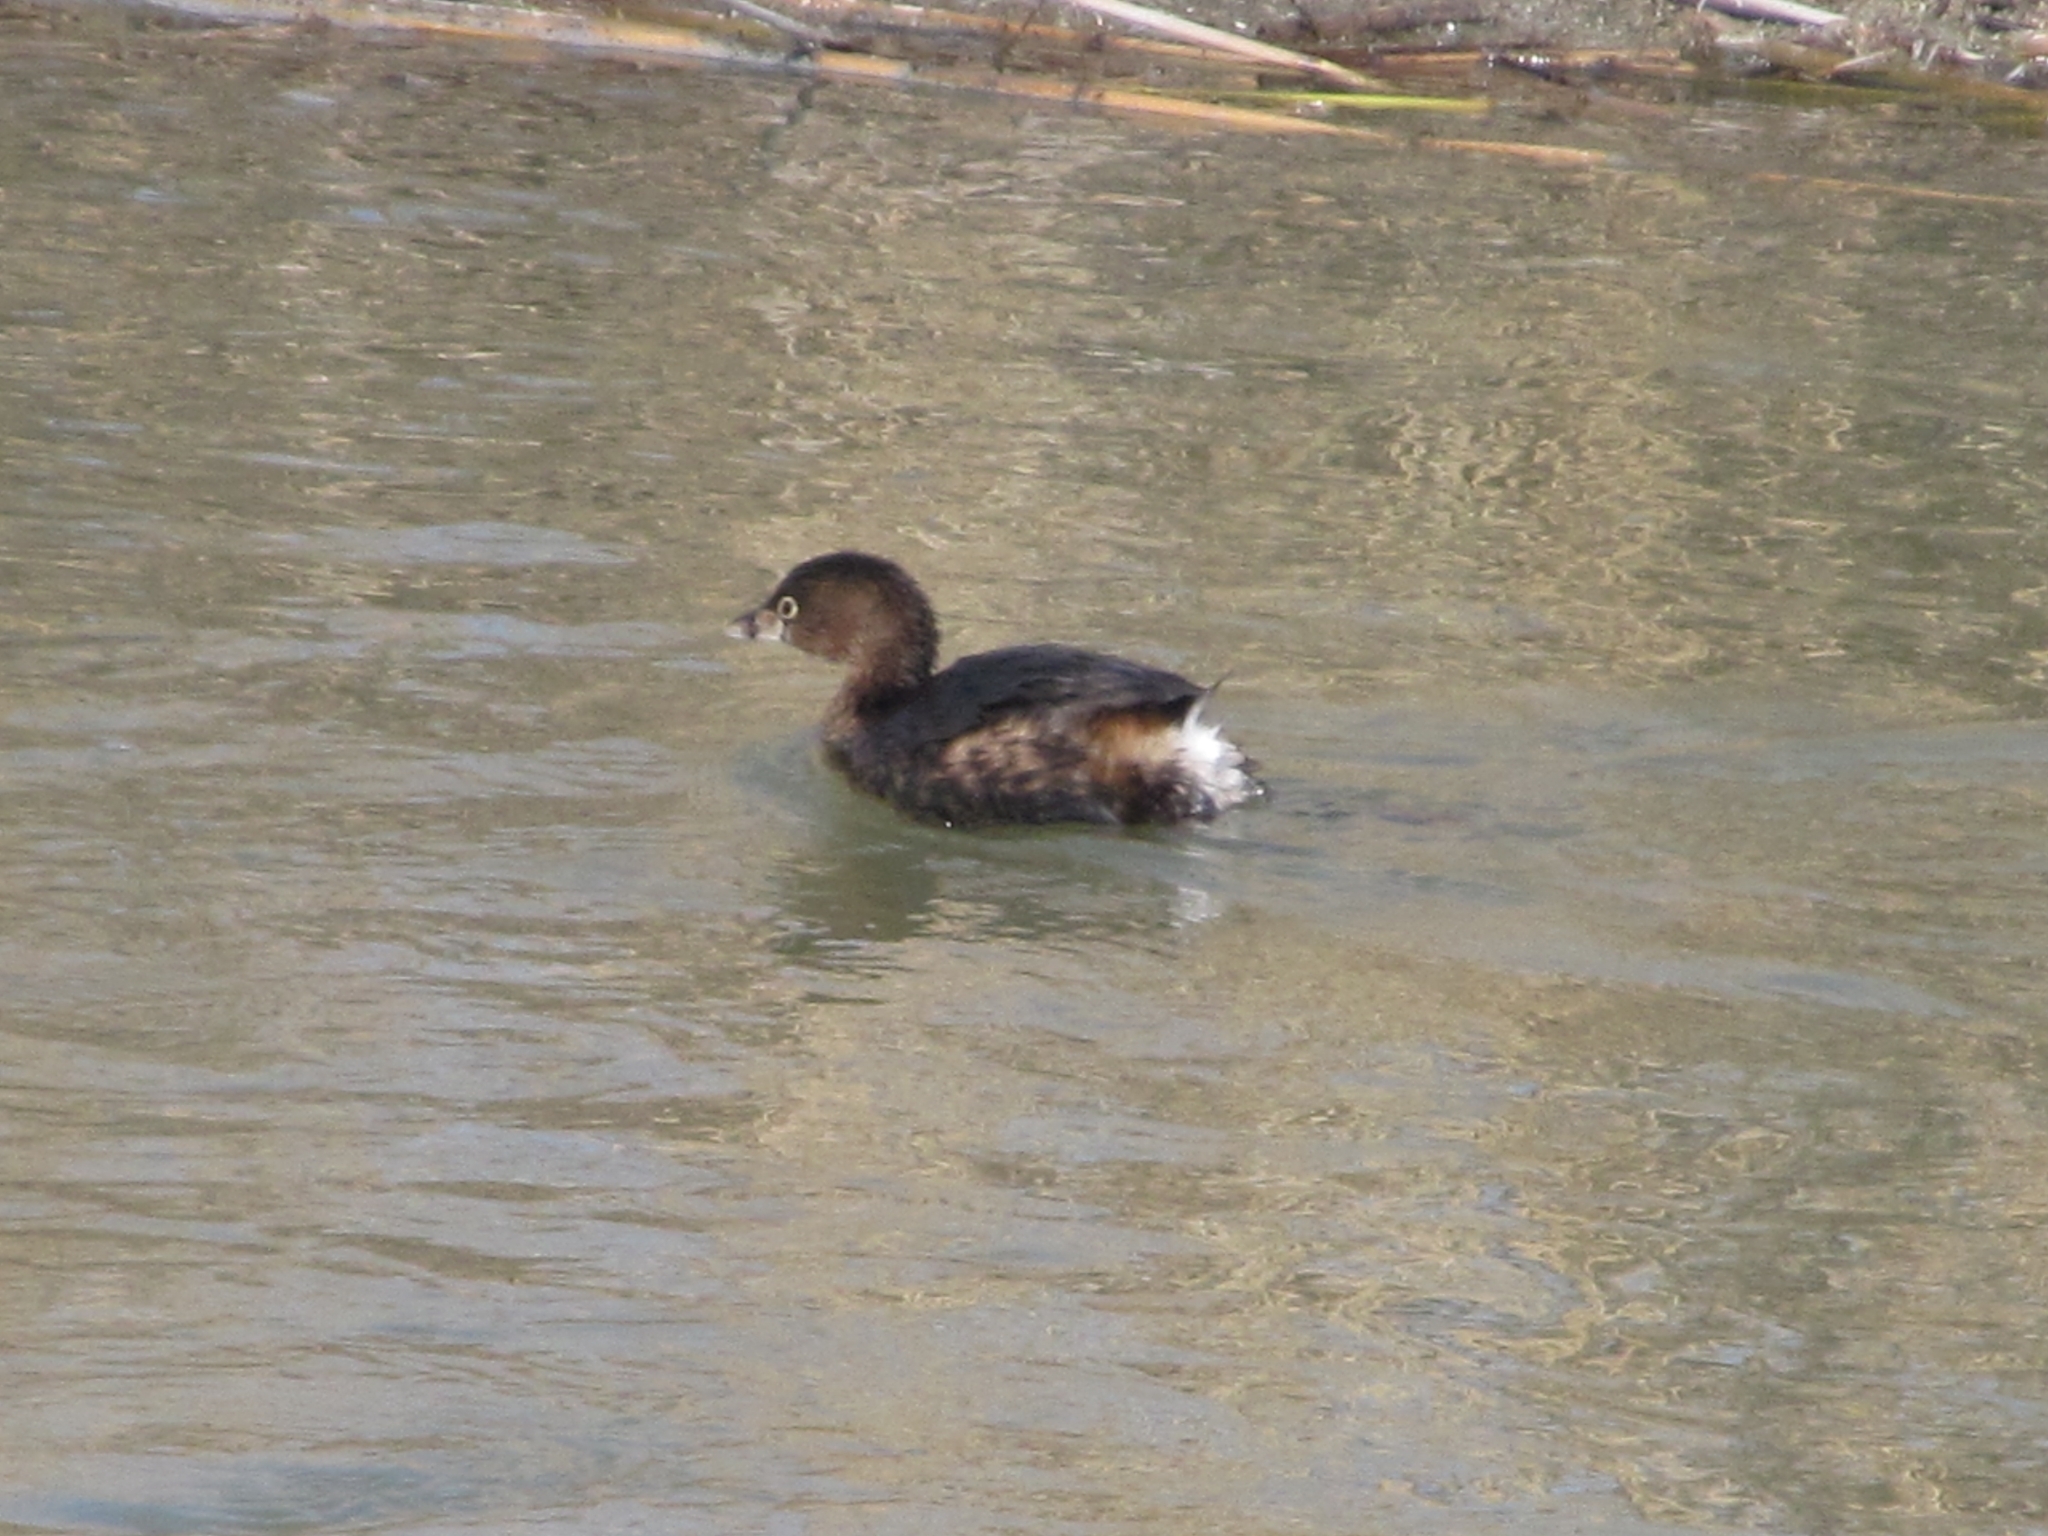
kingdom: Animalia
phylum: Chordata
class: Aves
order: Podicipediformes
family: Podicipedidae
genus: Podilymbus
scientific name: Podilymbus podiceps
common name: Pied-billed grebe
